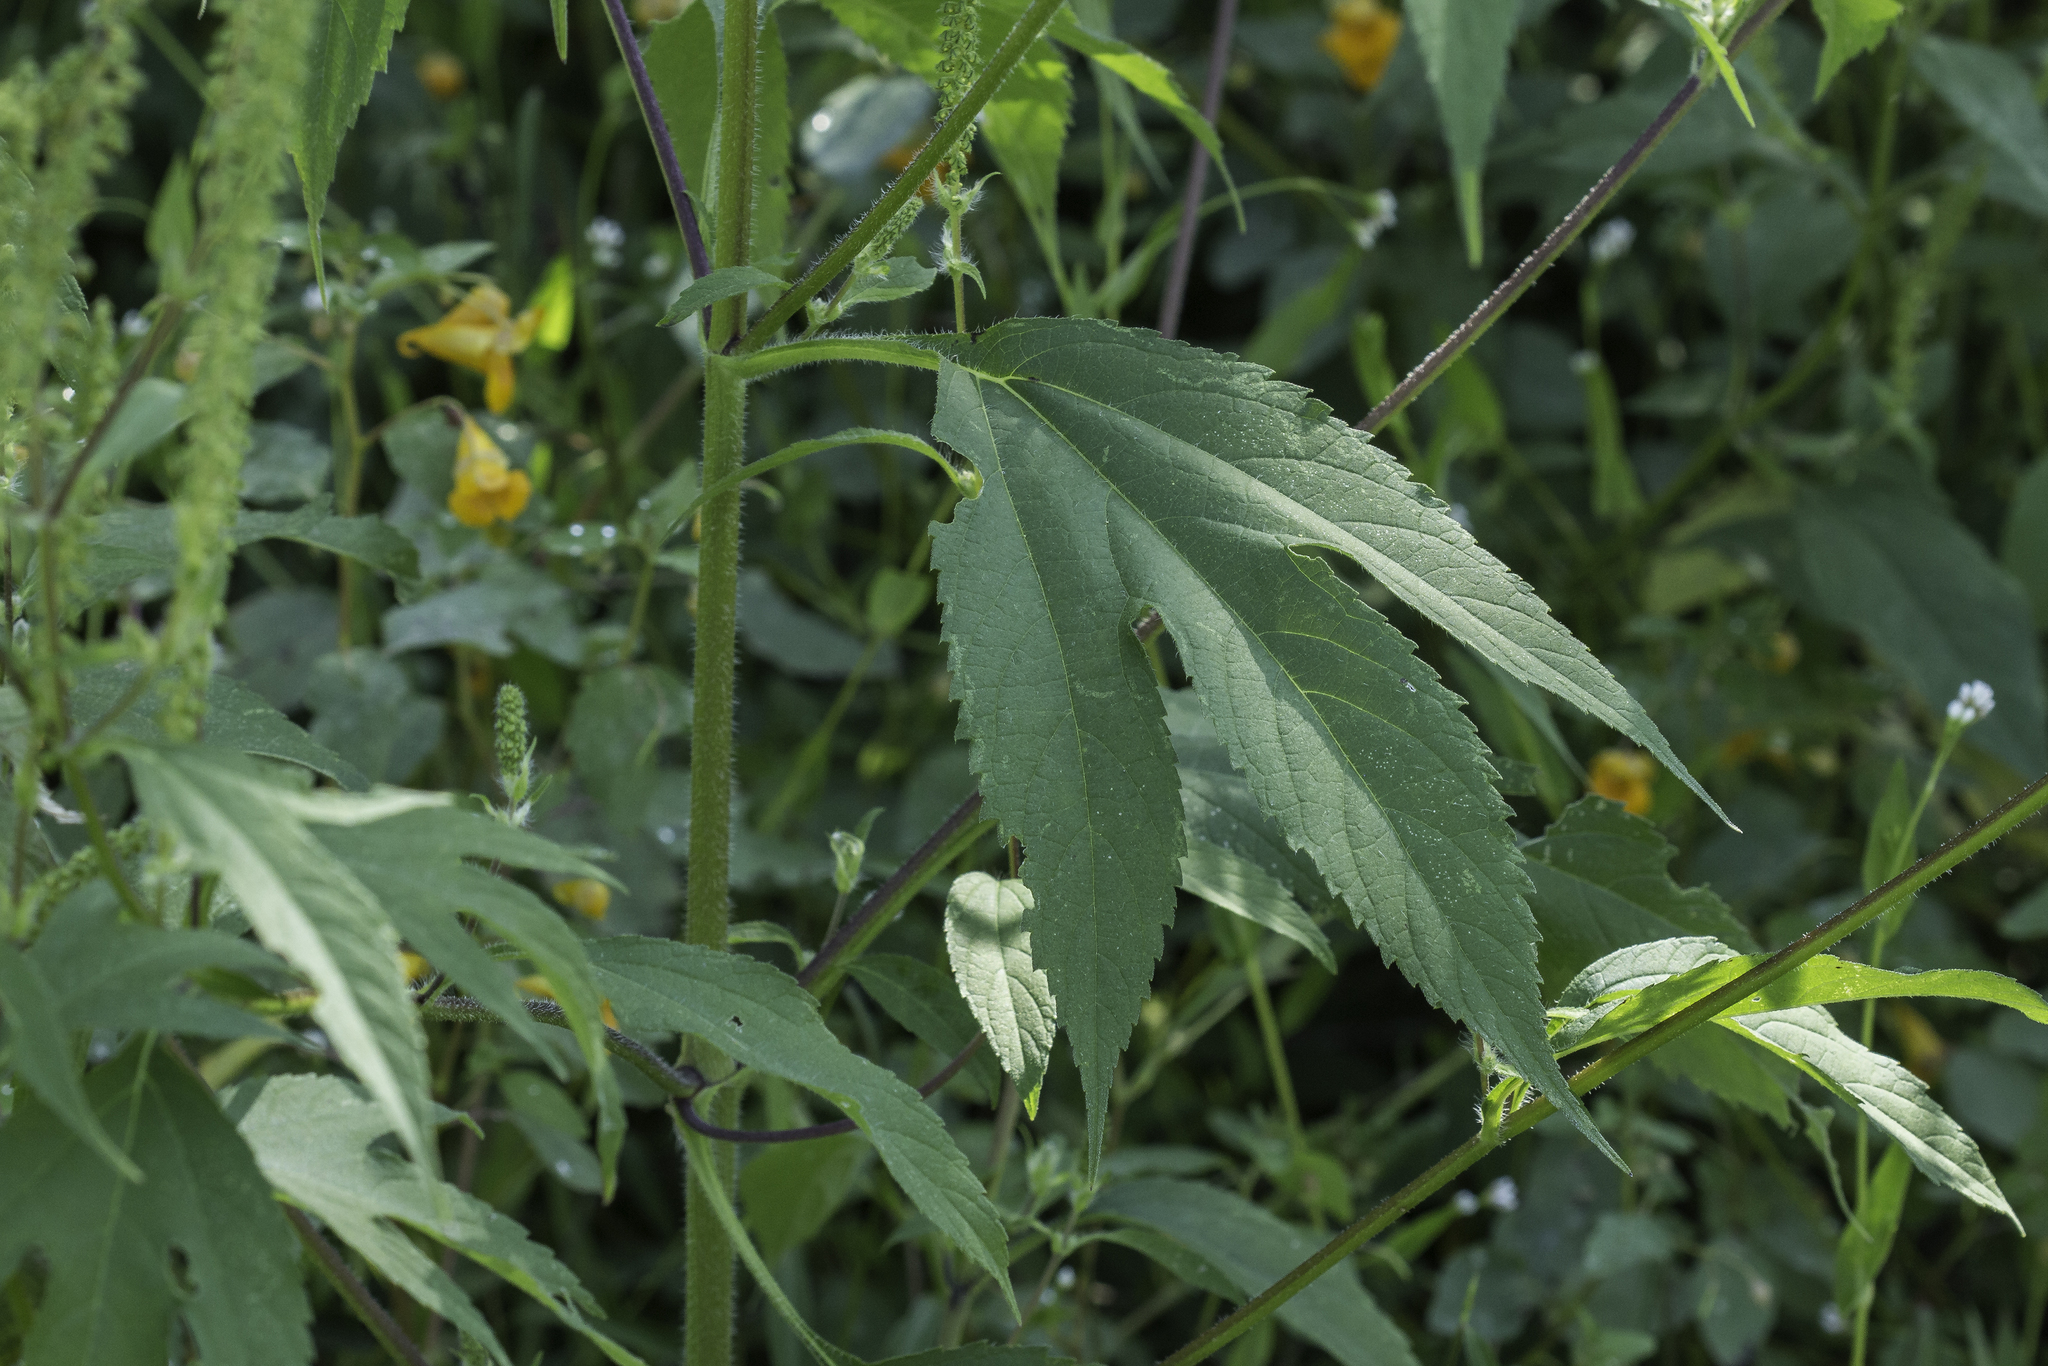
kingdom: Plantae
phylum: Tracheophyta
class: Magnoliopsida
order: Asterales
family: Asteraceae
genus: Ambrosia
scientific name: Ambrosia trifida
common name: Giant ragweed
